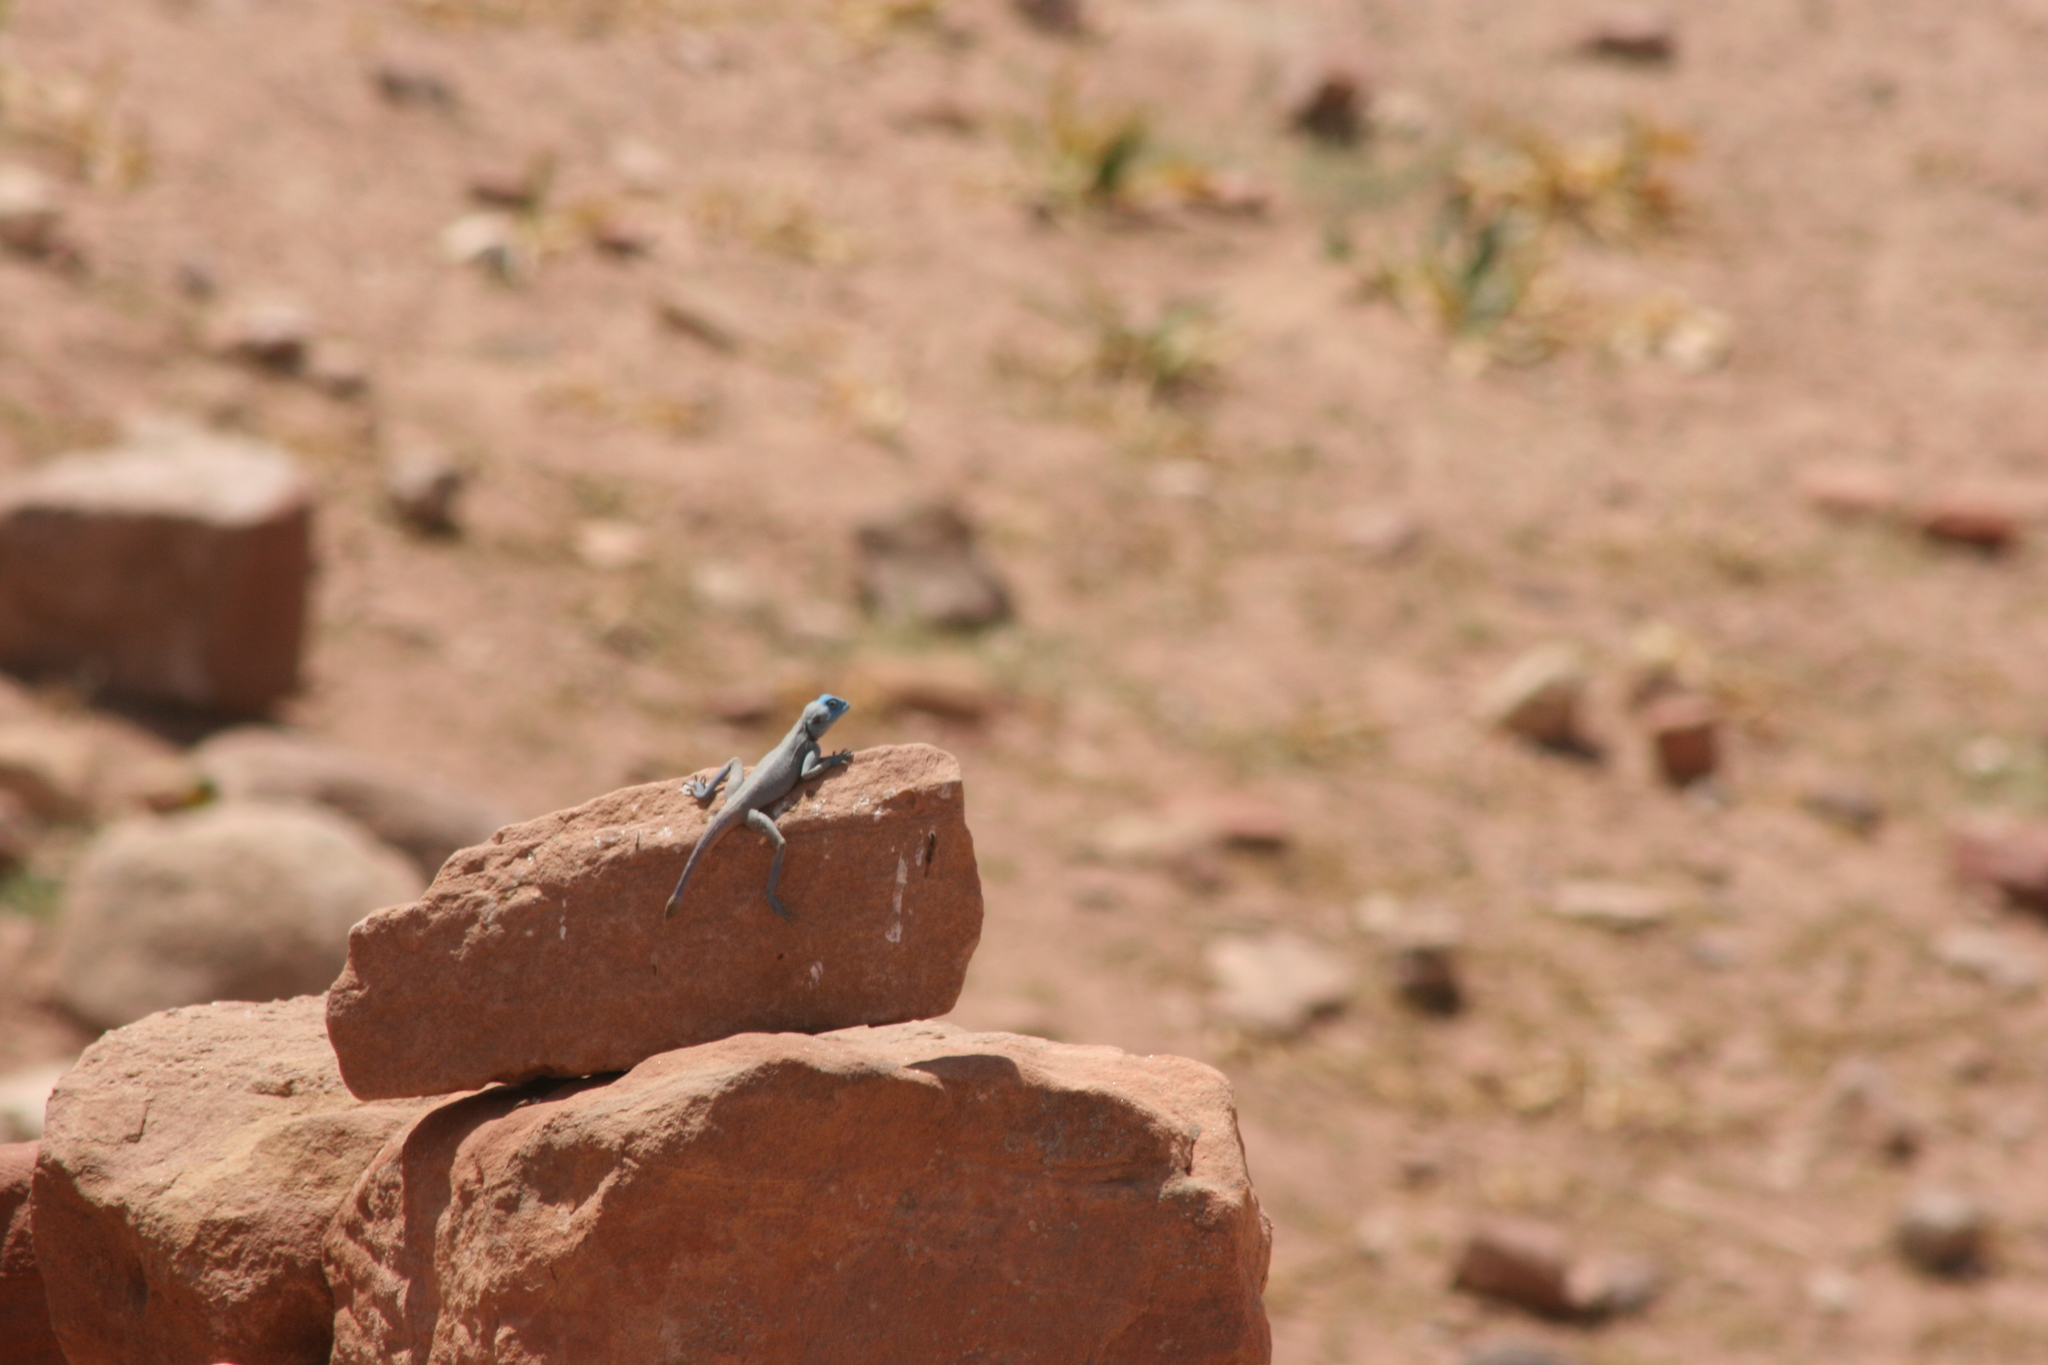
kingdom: Animalia
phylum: Chordata
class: Squamata
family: Agamidae
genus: Pseudotrapelus
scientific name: Pseudotrapelus sinaitus
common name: Sinai agama
